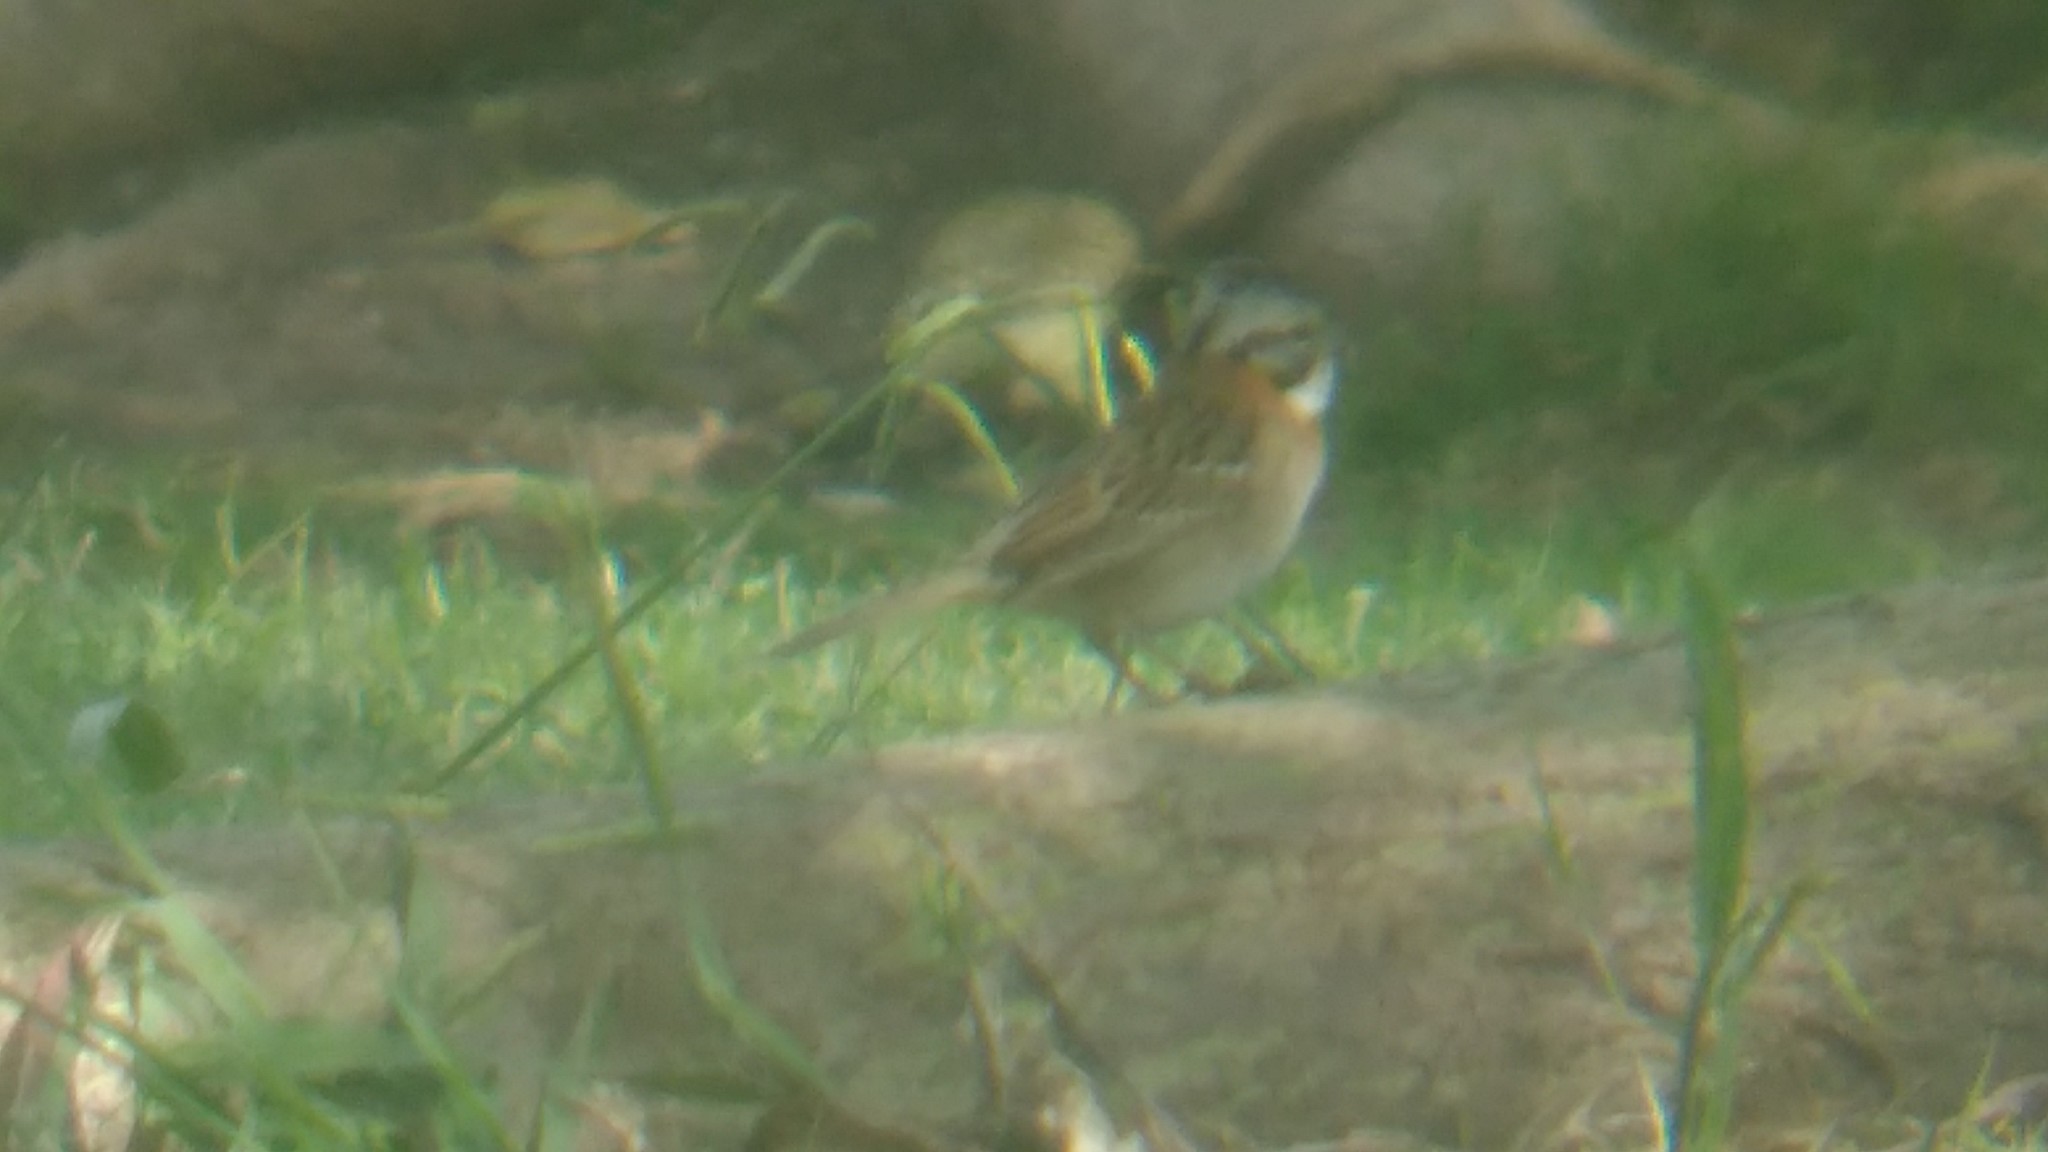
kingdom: Animalia
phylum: Chordata
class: Aves
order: Passeriformes
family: Passerellidae
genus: Zonotrichia
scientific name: Zonotrichia capensis
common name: Rufous-collared sparrow
